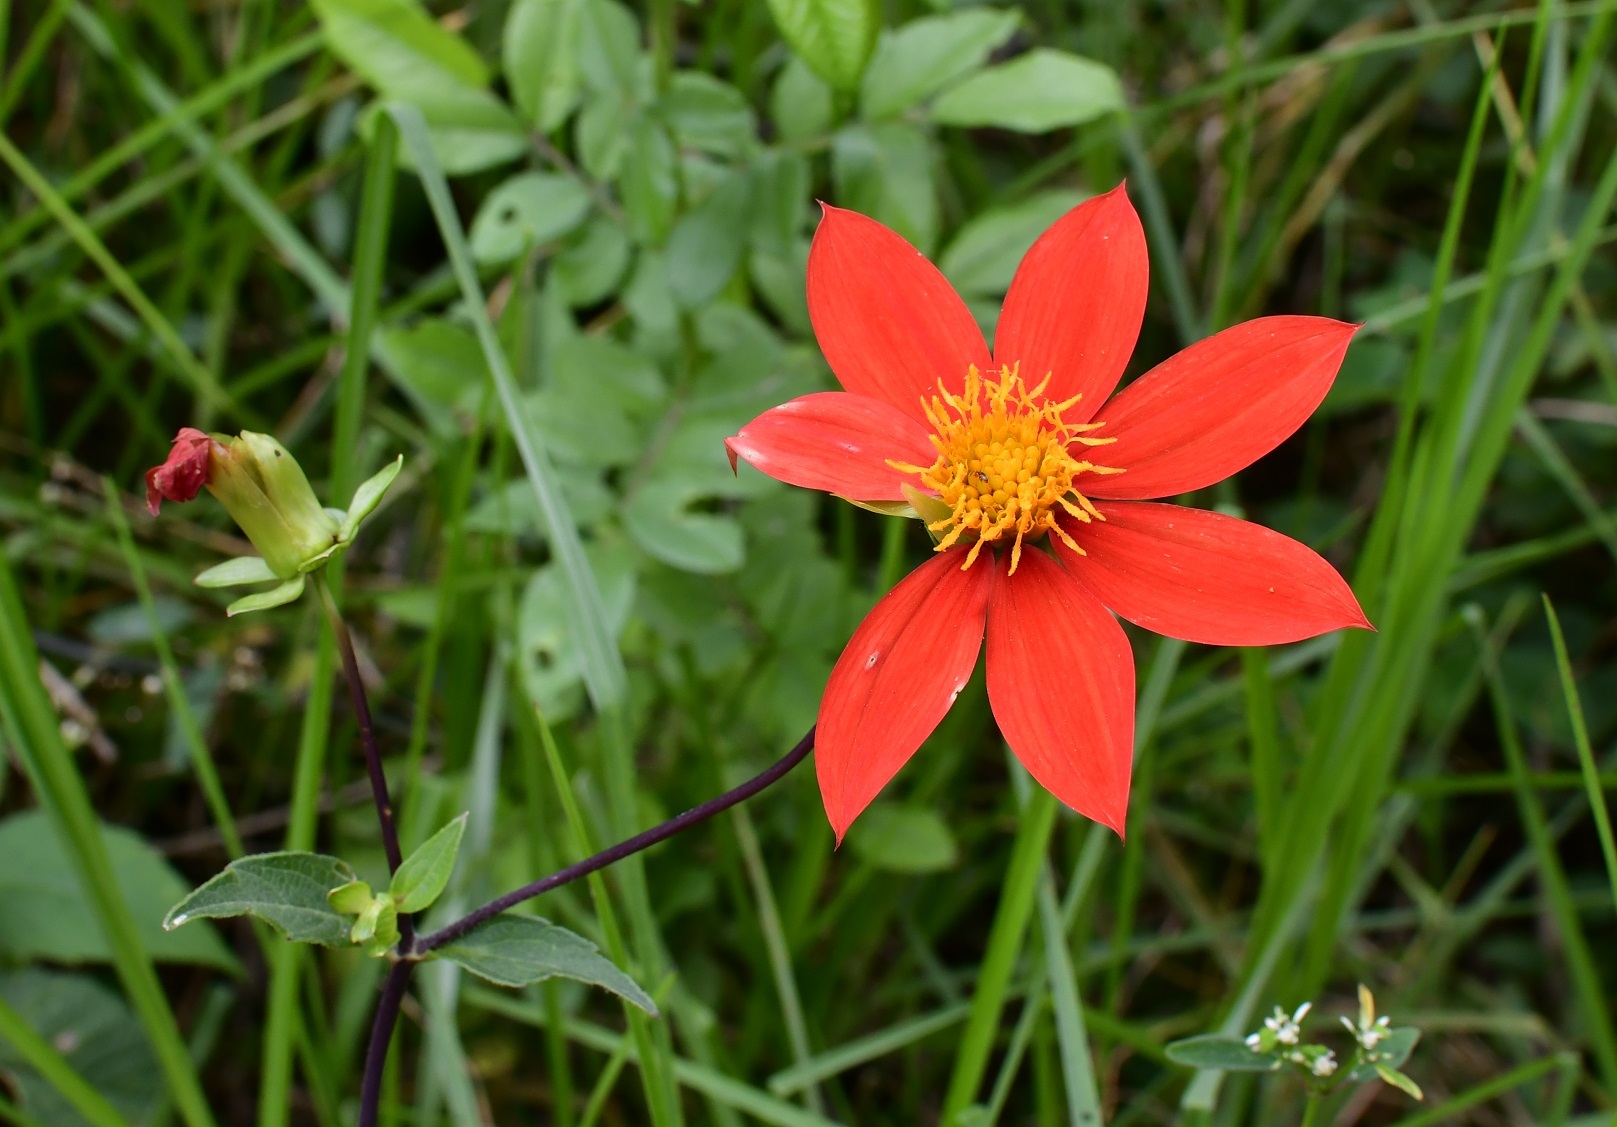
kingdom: Plantae
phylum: Tracheophyta
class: Magnoliopsida
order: Asterales
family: Asteraceae
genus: Dahlia
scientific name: Dahlia coccinea
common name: Red dahlia
